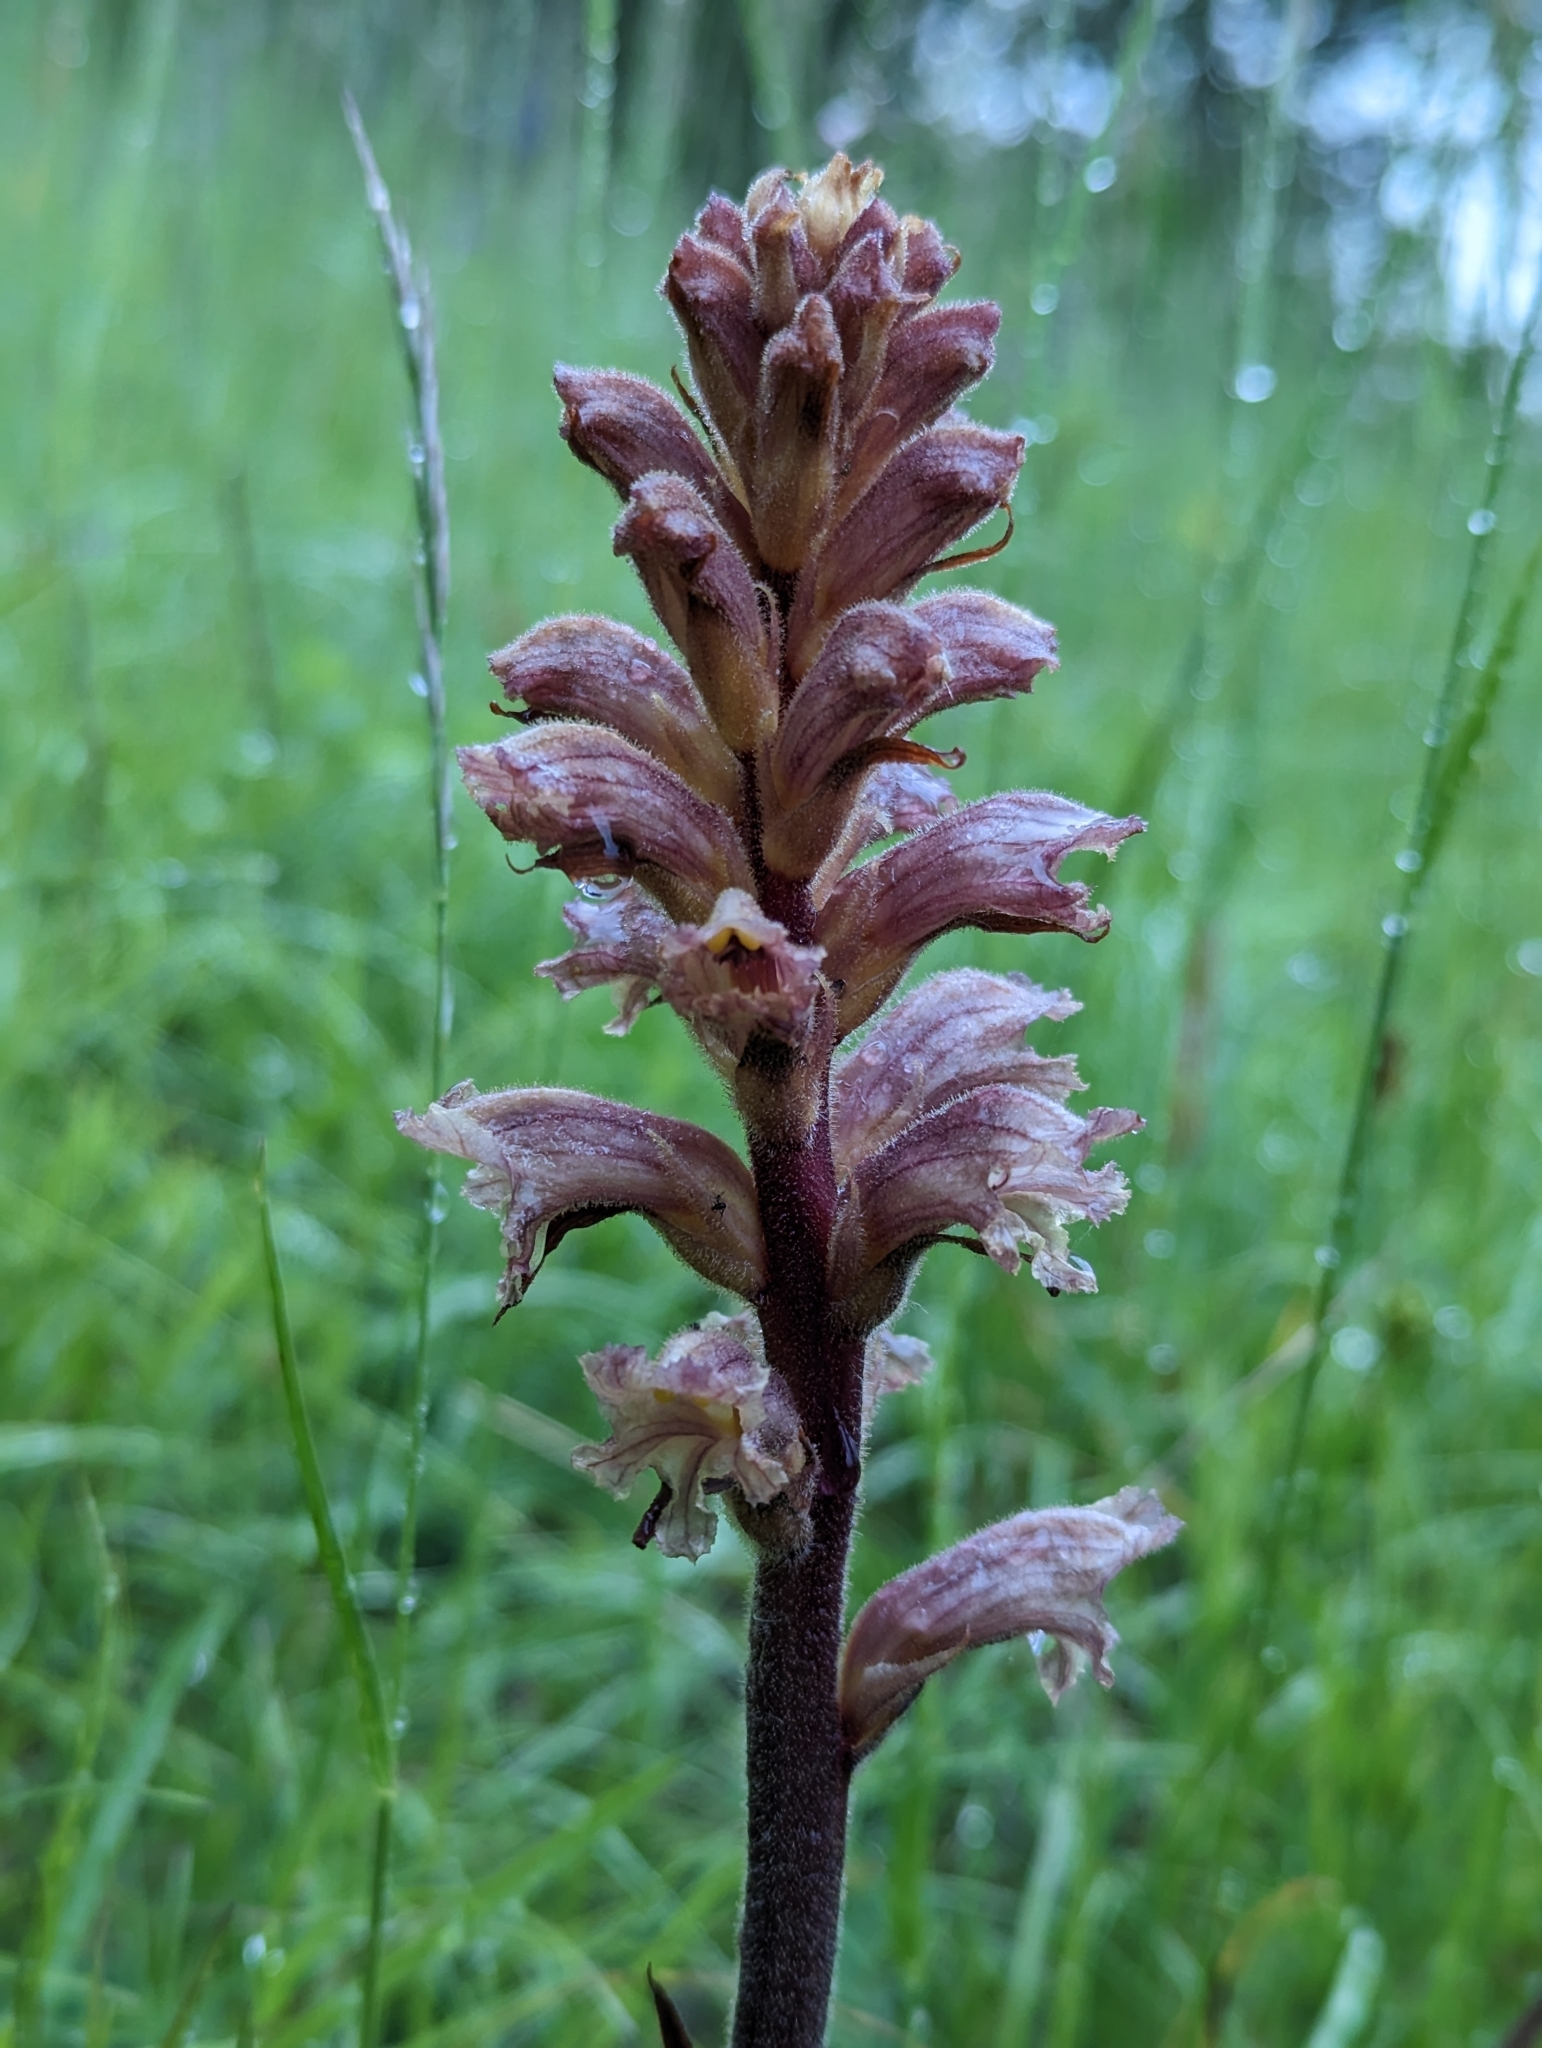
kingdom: Plantae
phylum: Tracheophyta
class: Magnoliopsida
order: Lamiales
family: Orobanchaceae
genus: Orobanche
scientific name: Orobanche lutea
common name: Yellow broomrape
